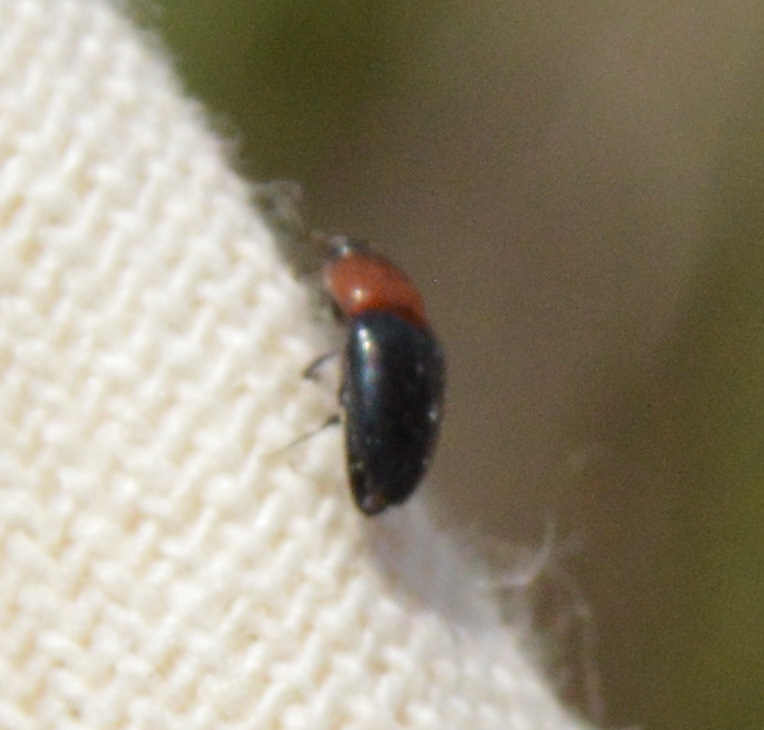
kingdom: Animalia
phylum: Arthropoda
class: Insecta
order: Coleoptera
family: Elateridae
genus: Drapetes
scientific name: Drapetes
